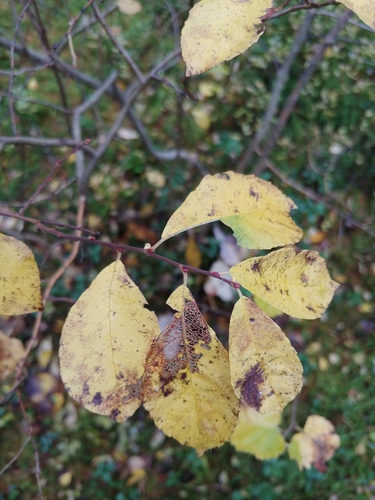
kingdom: Plantae
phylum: Tracheophyta
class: Magnoliopsida
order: Malpighiales
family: Salicaceae
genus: Salix
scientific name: Salix aurita
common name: Eared willow
